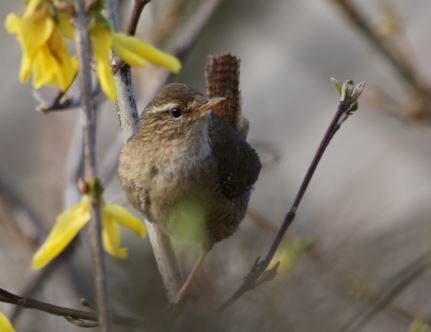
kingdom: Animalia
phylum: Chordata
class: Aves
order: Passeriformes
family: Troglodytidae
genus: Troglodytes
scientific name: Troglodytes troglodytes
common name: Eurasian wren
